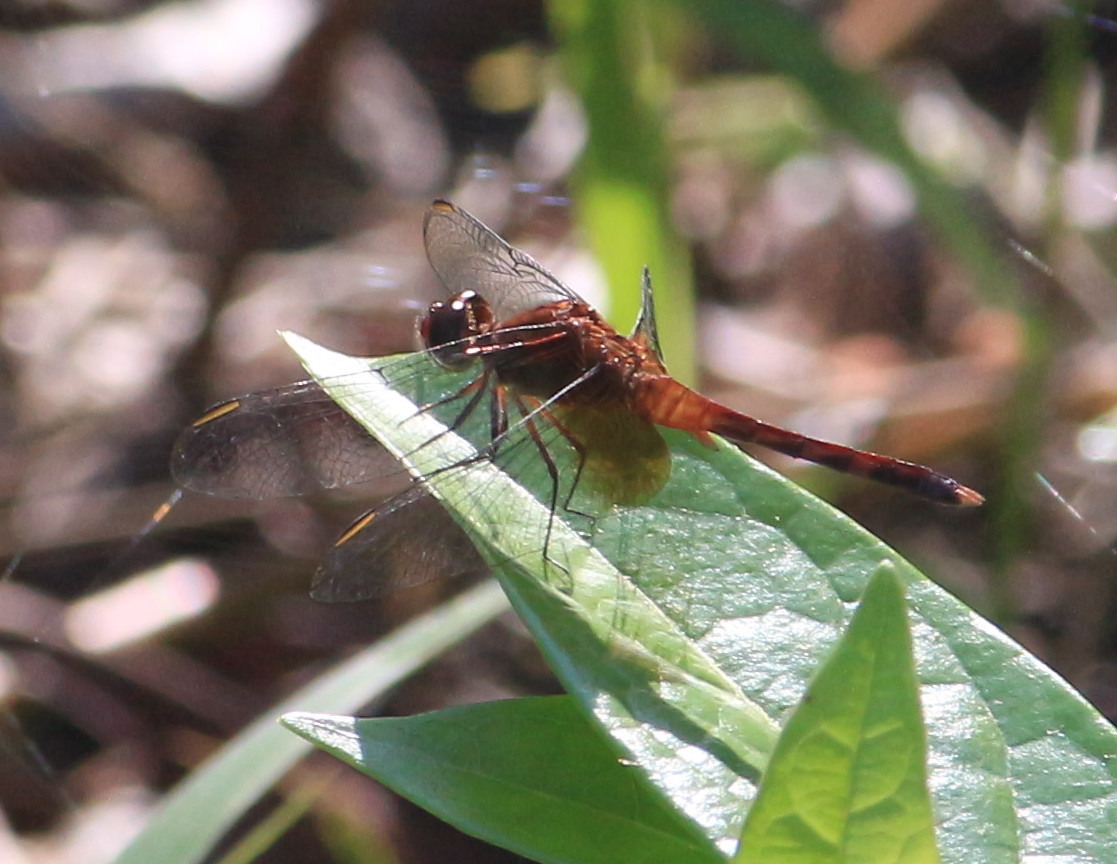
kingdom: Animalia
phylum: Arthropoda
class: Insecta
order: Odonata
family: Libellulidae
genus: Erythrodiplax
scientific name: Erythrodiplax fervida
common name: Red-mantled dragonlet
